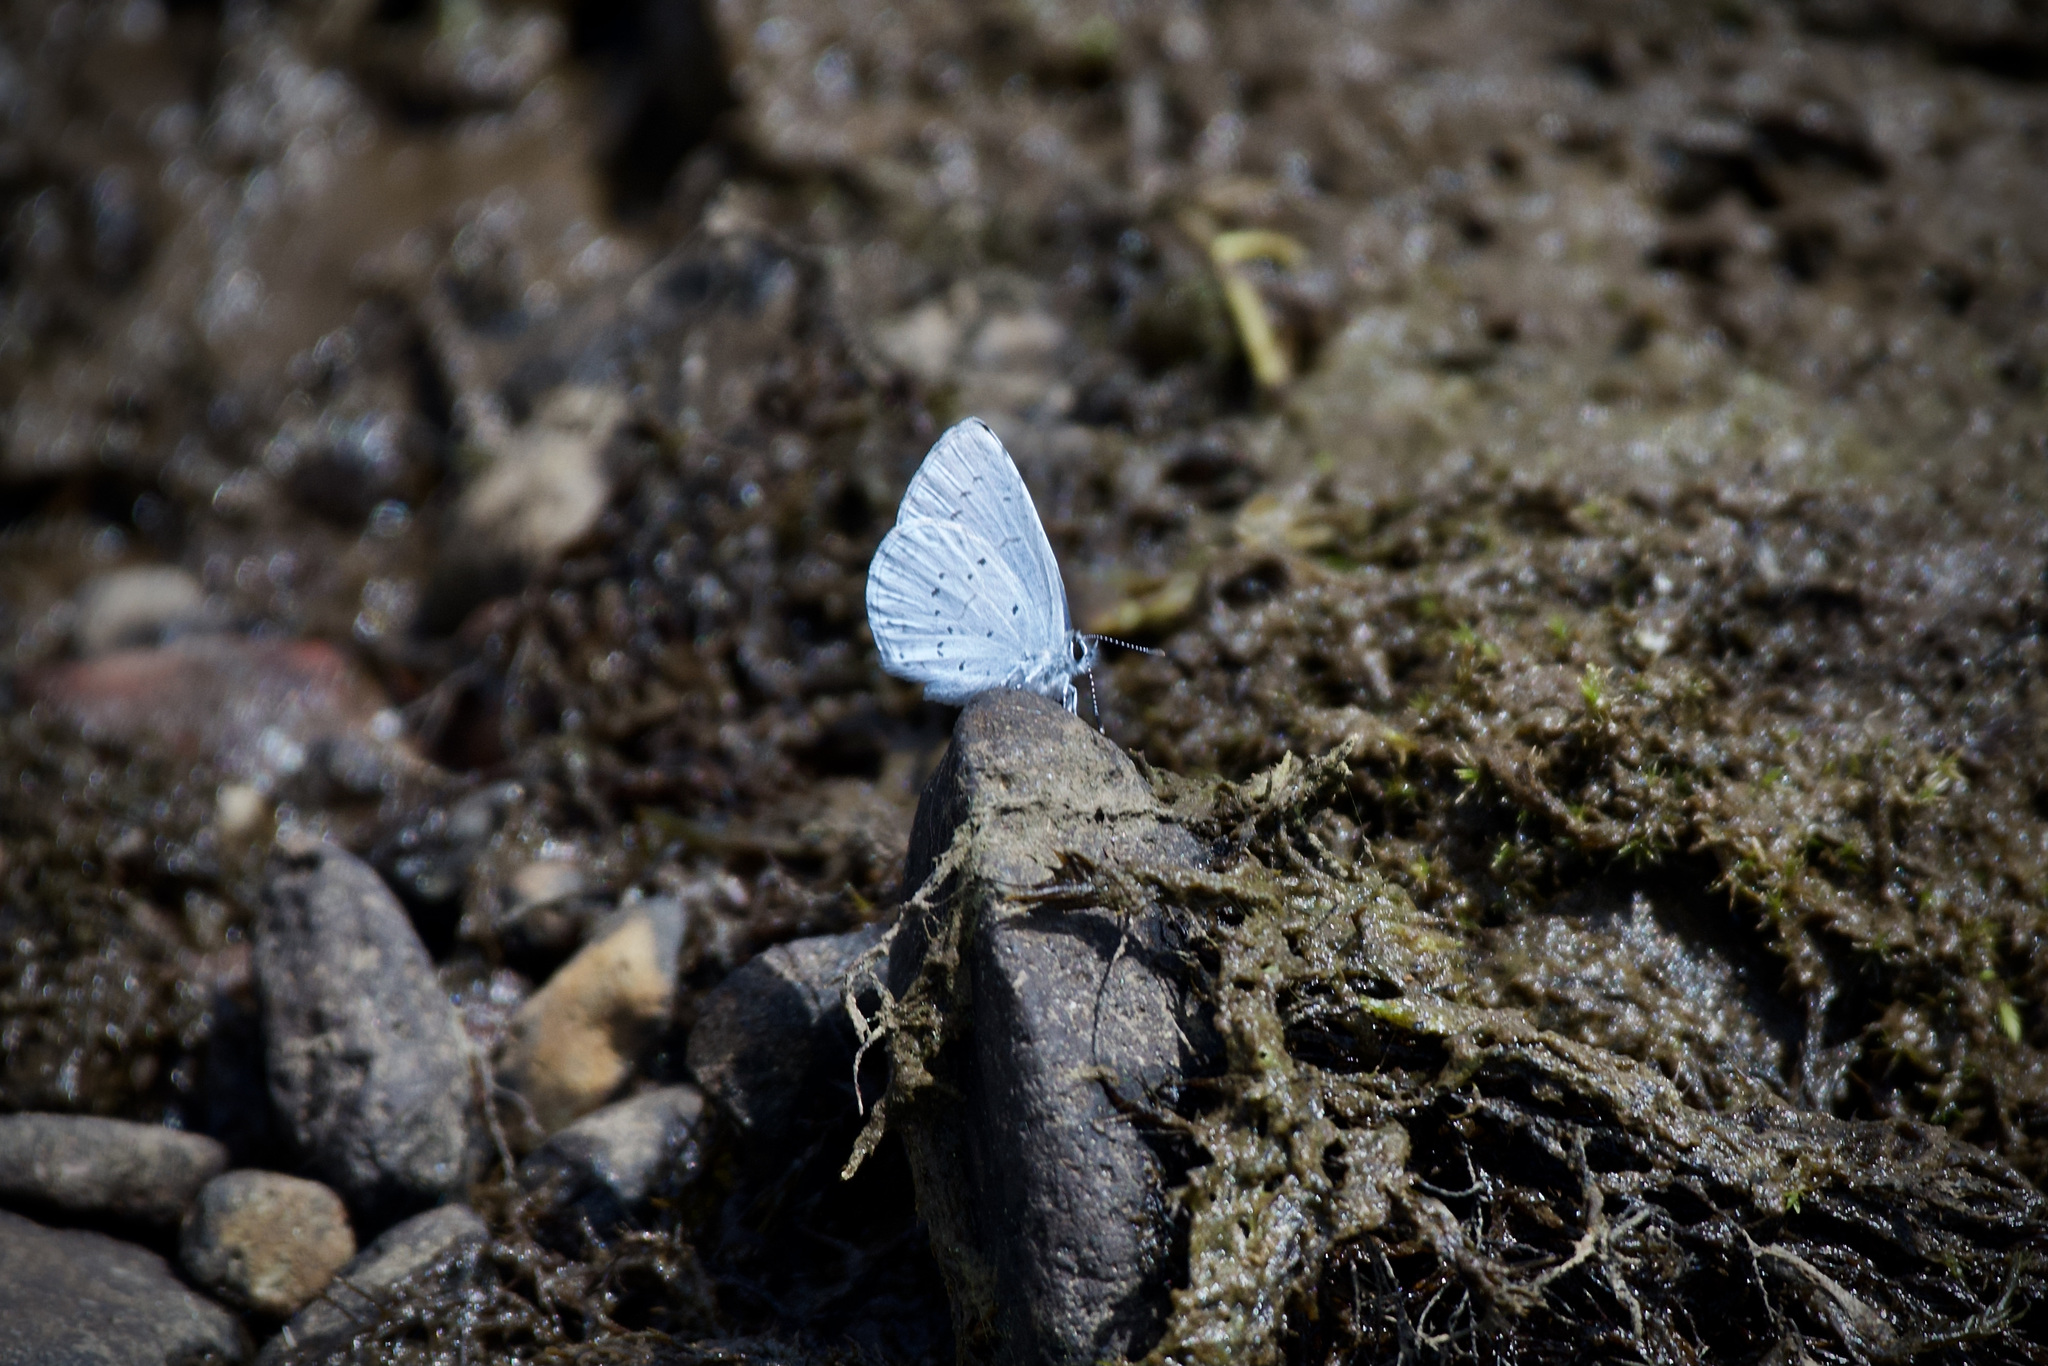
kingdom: Animalia
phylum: Arthropoda
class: Insecta
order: Lepidoptera
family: Lycaenidae
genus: Celastrina
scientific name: Celastrina ladon
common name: Spring azure
